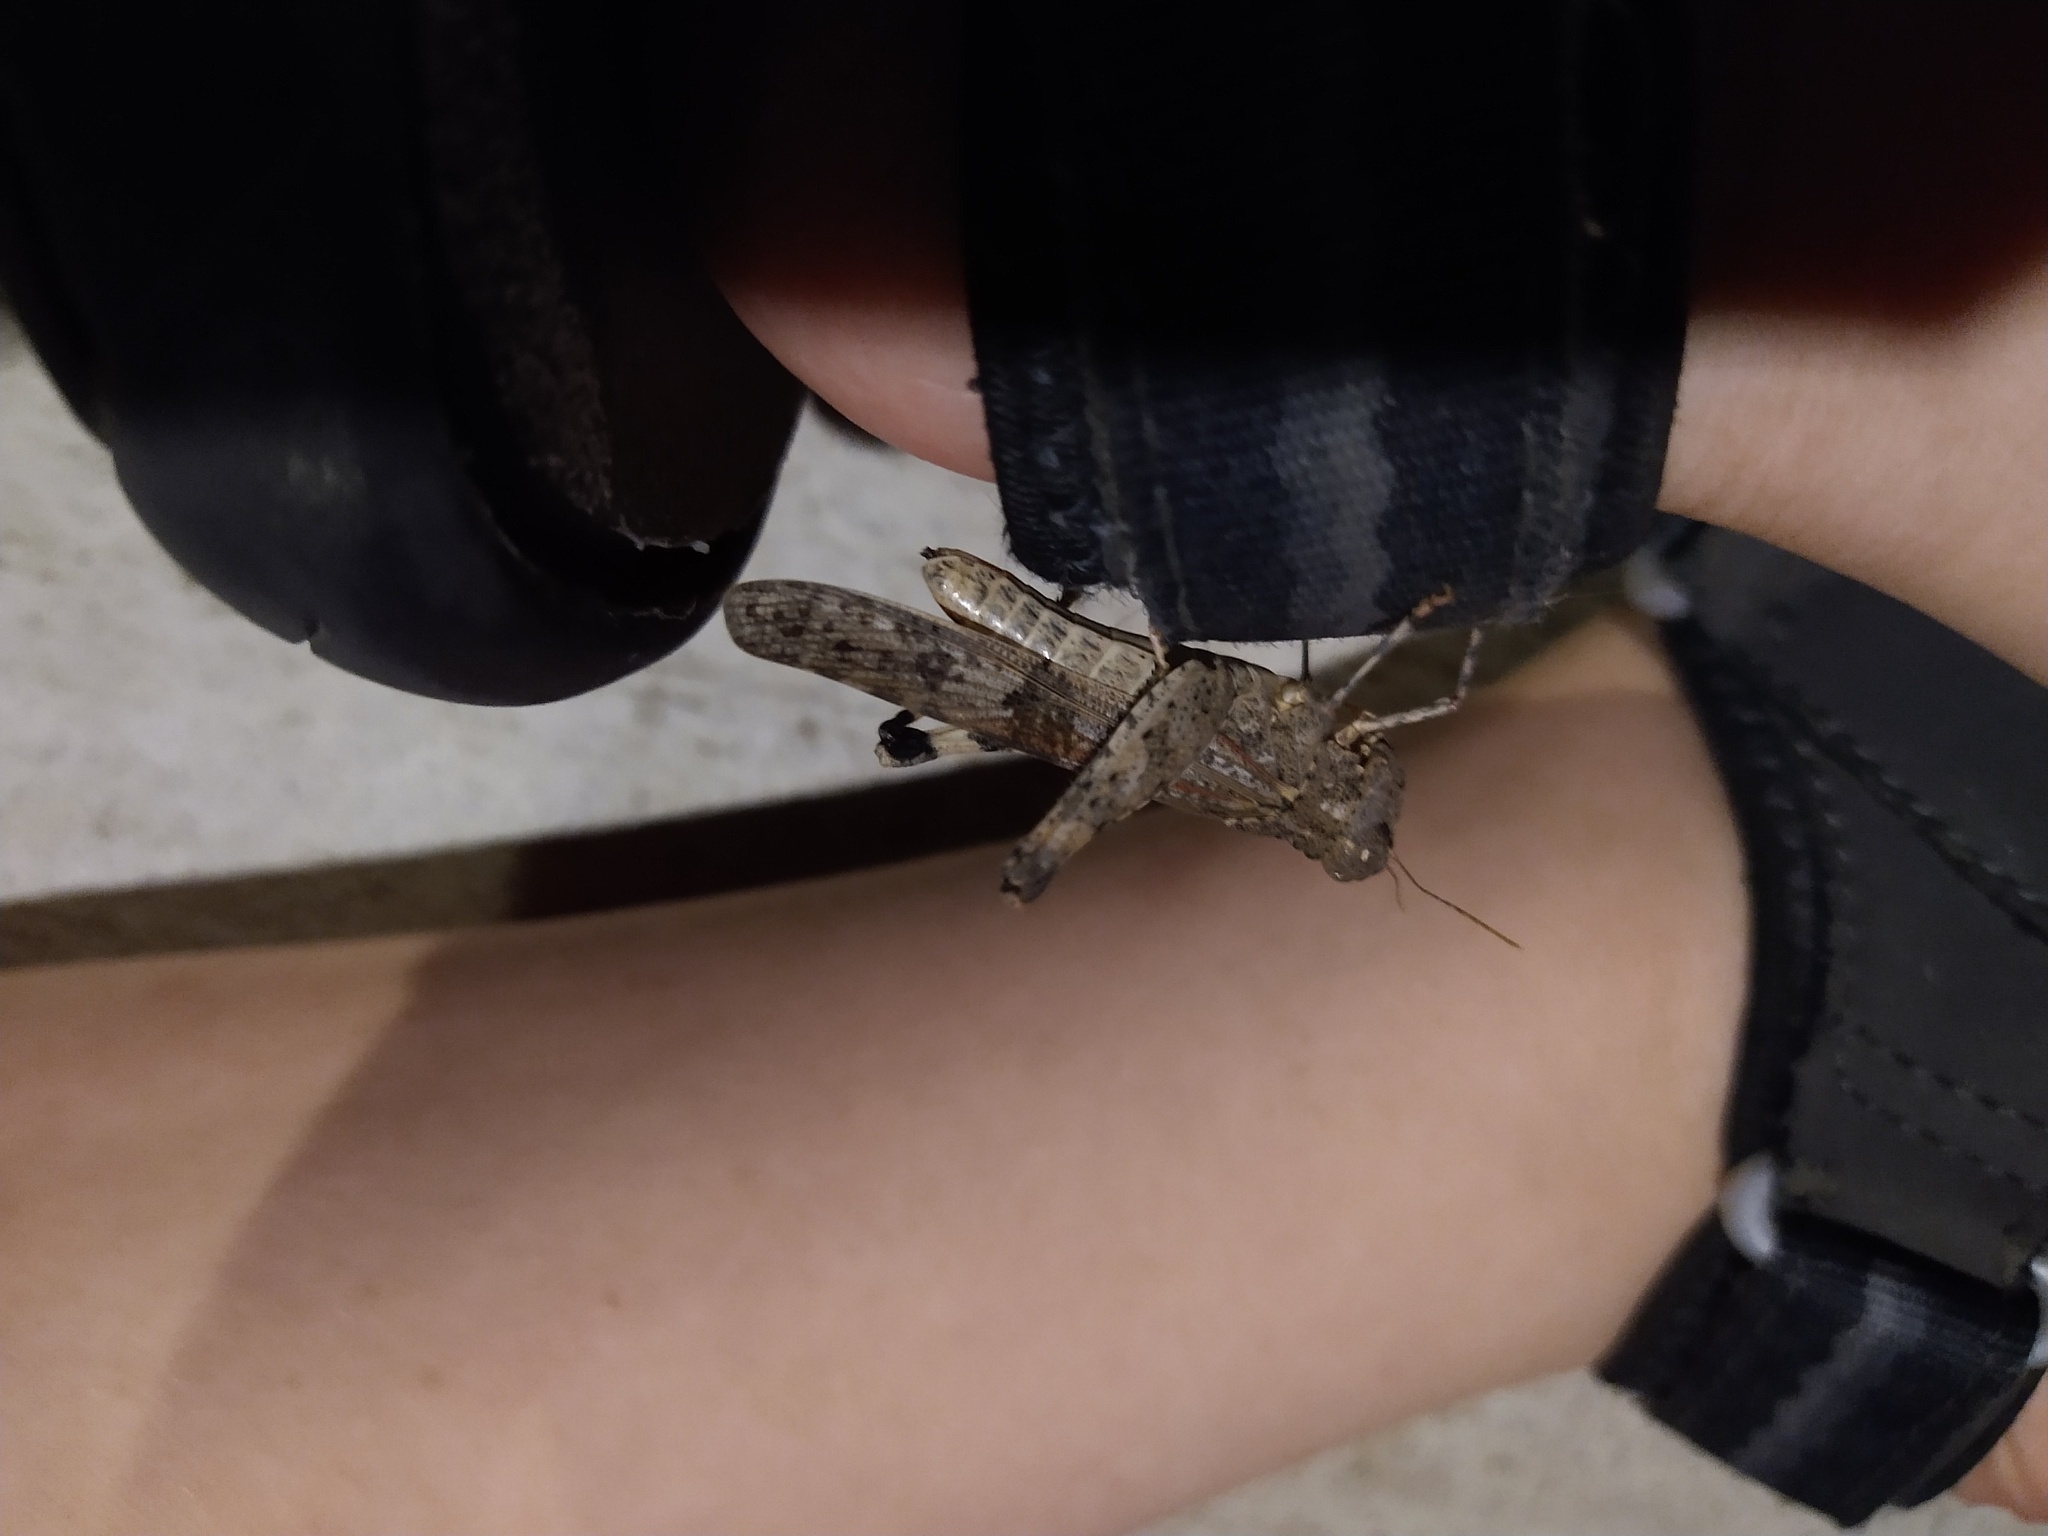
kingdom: Animalia
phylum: Arthropoda
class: Insecta
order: Orthoptera
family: Acrididae
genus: Trimerotropis
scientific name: Trimerotropis pallidipennis
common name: Pallid-winged grasshopper
